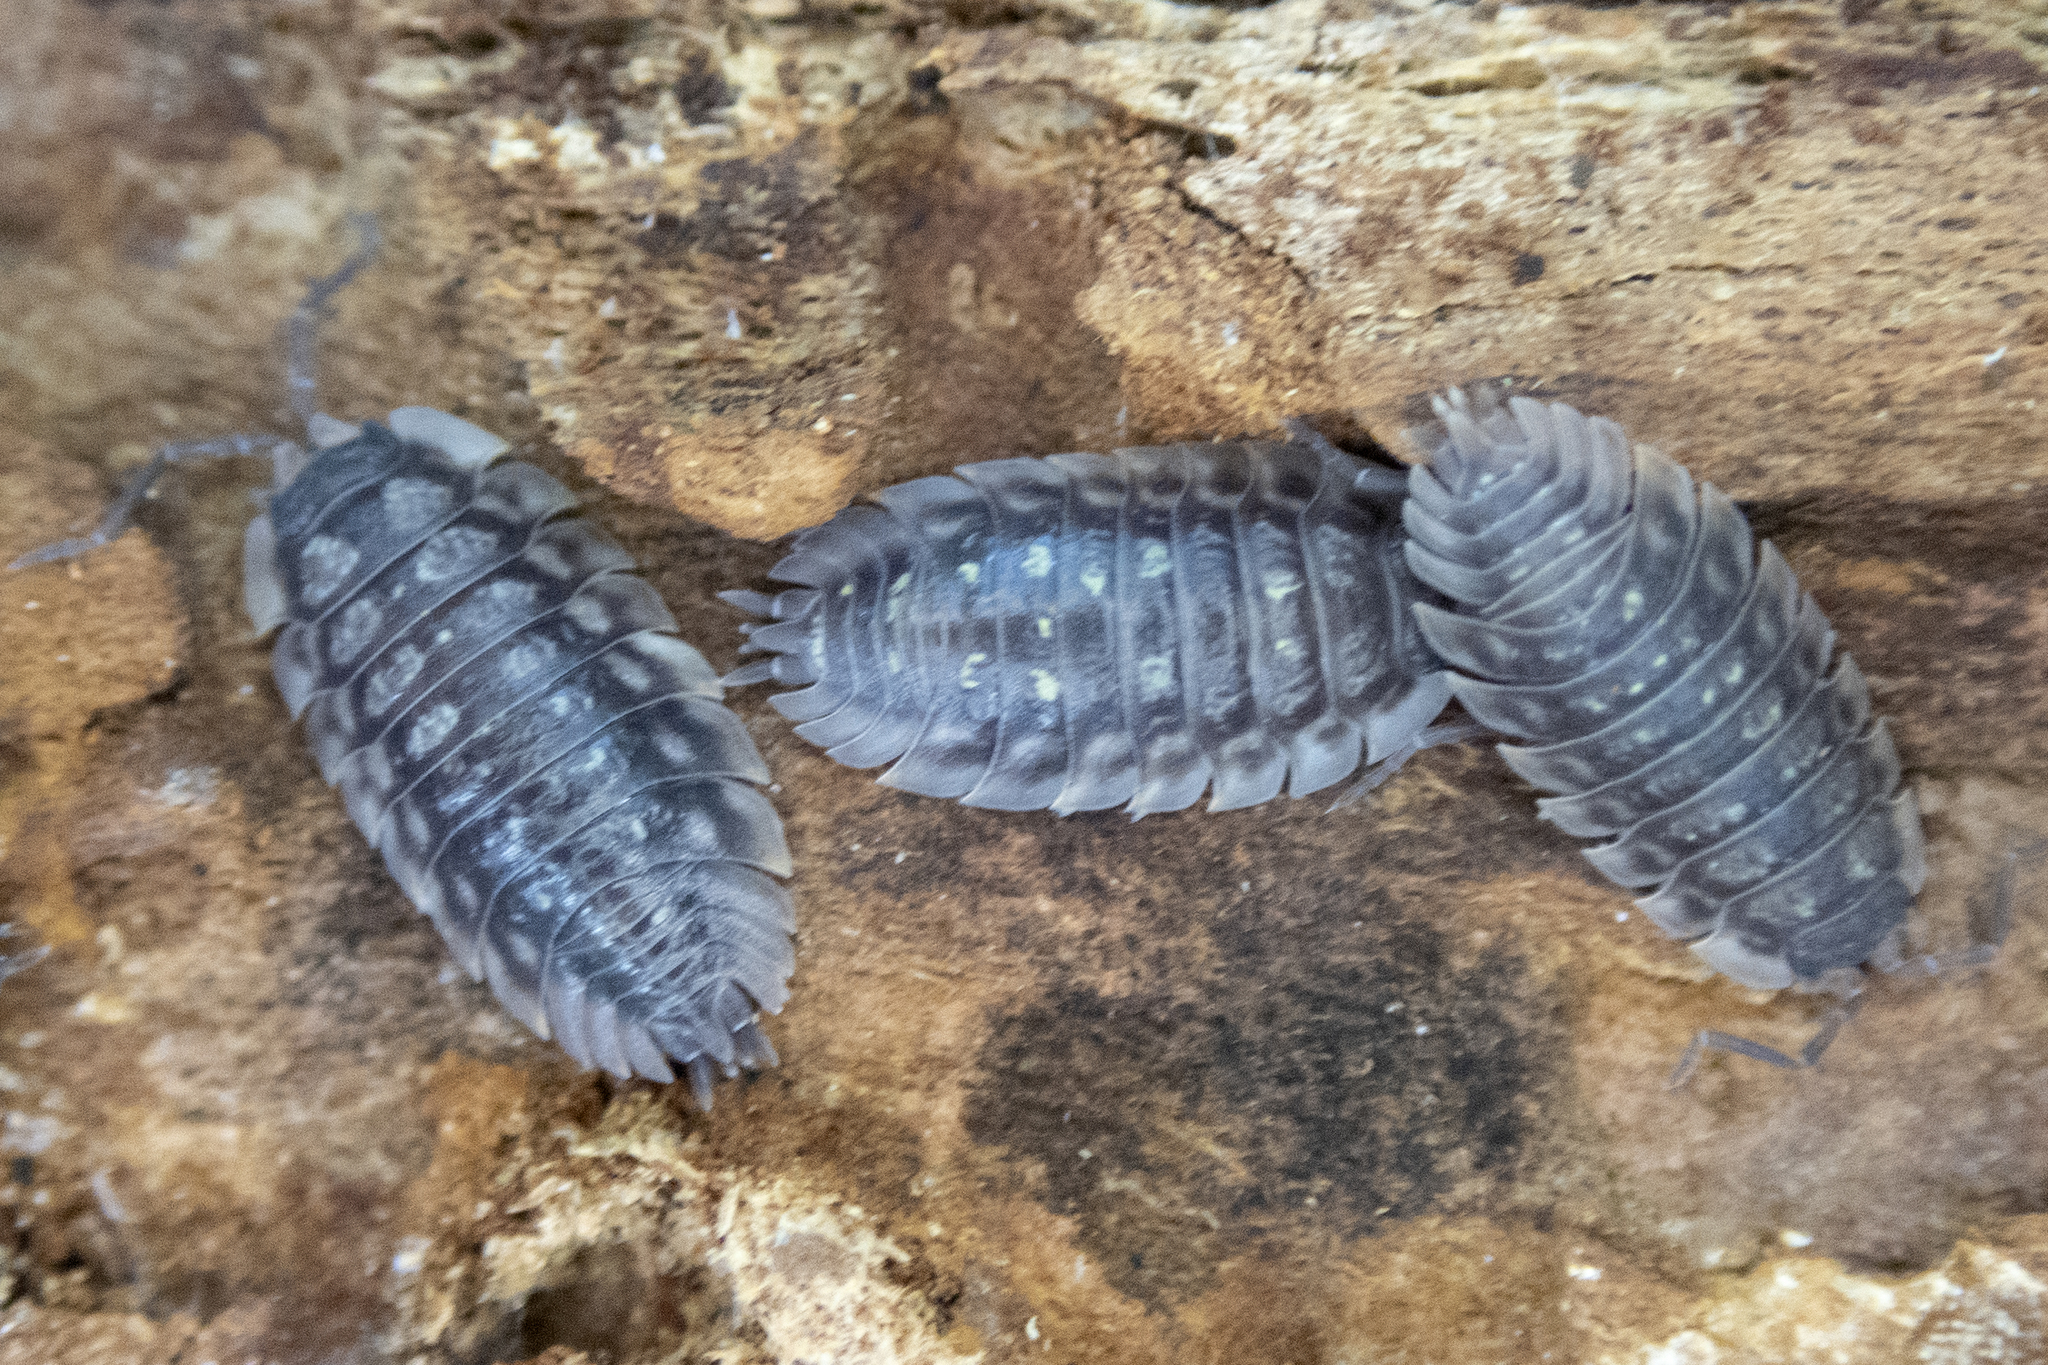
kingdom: Animalia
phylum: Arthropoda
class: Malacostraca
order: Isopoda
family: Oniscidae
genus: Oniscus
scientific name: Oniscus asellus
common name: Common shiny woodlouse
